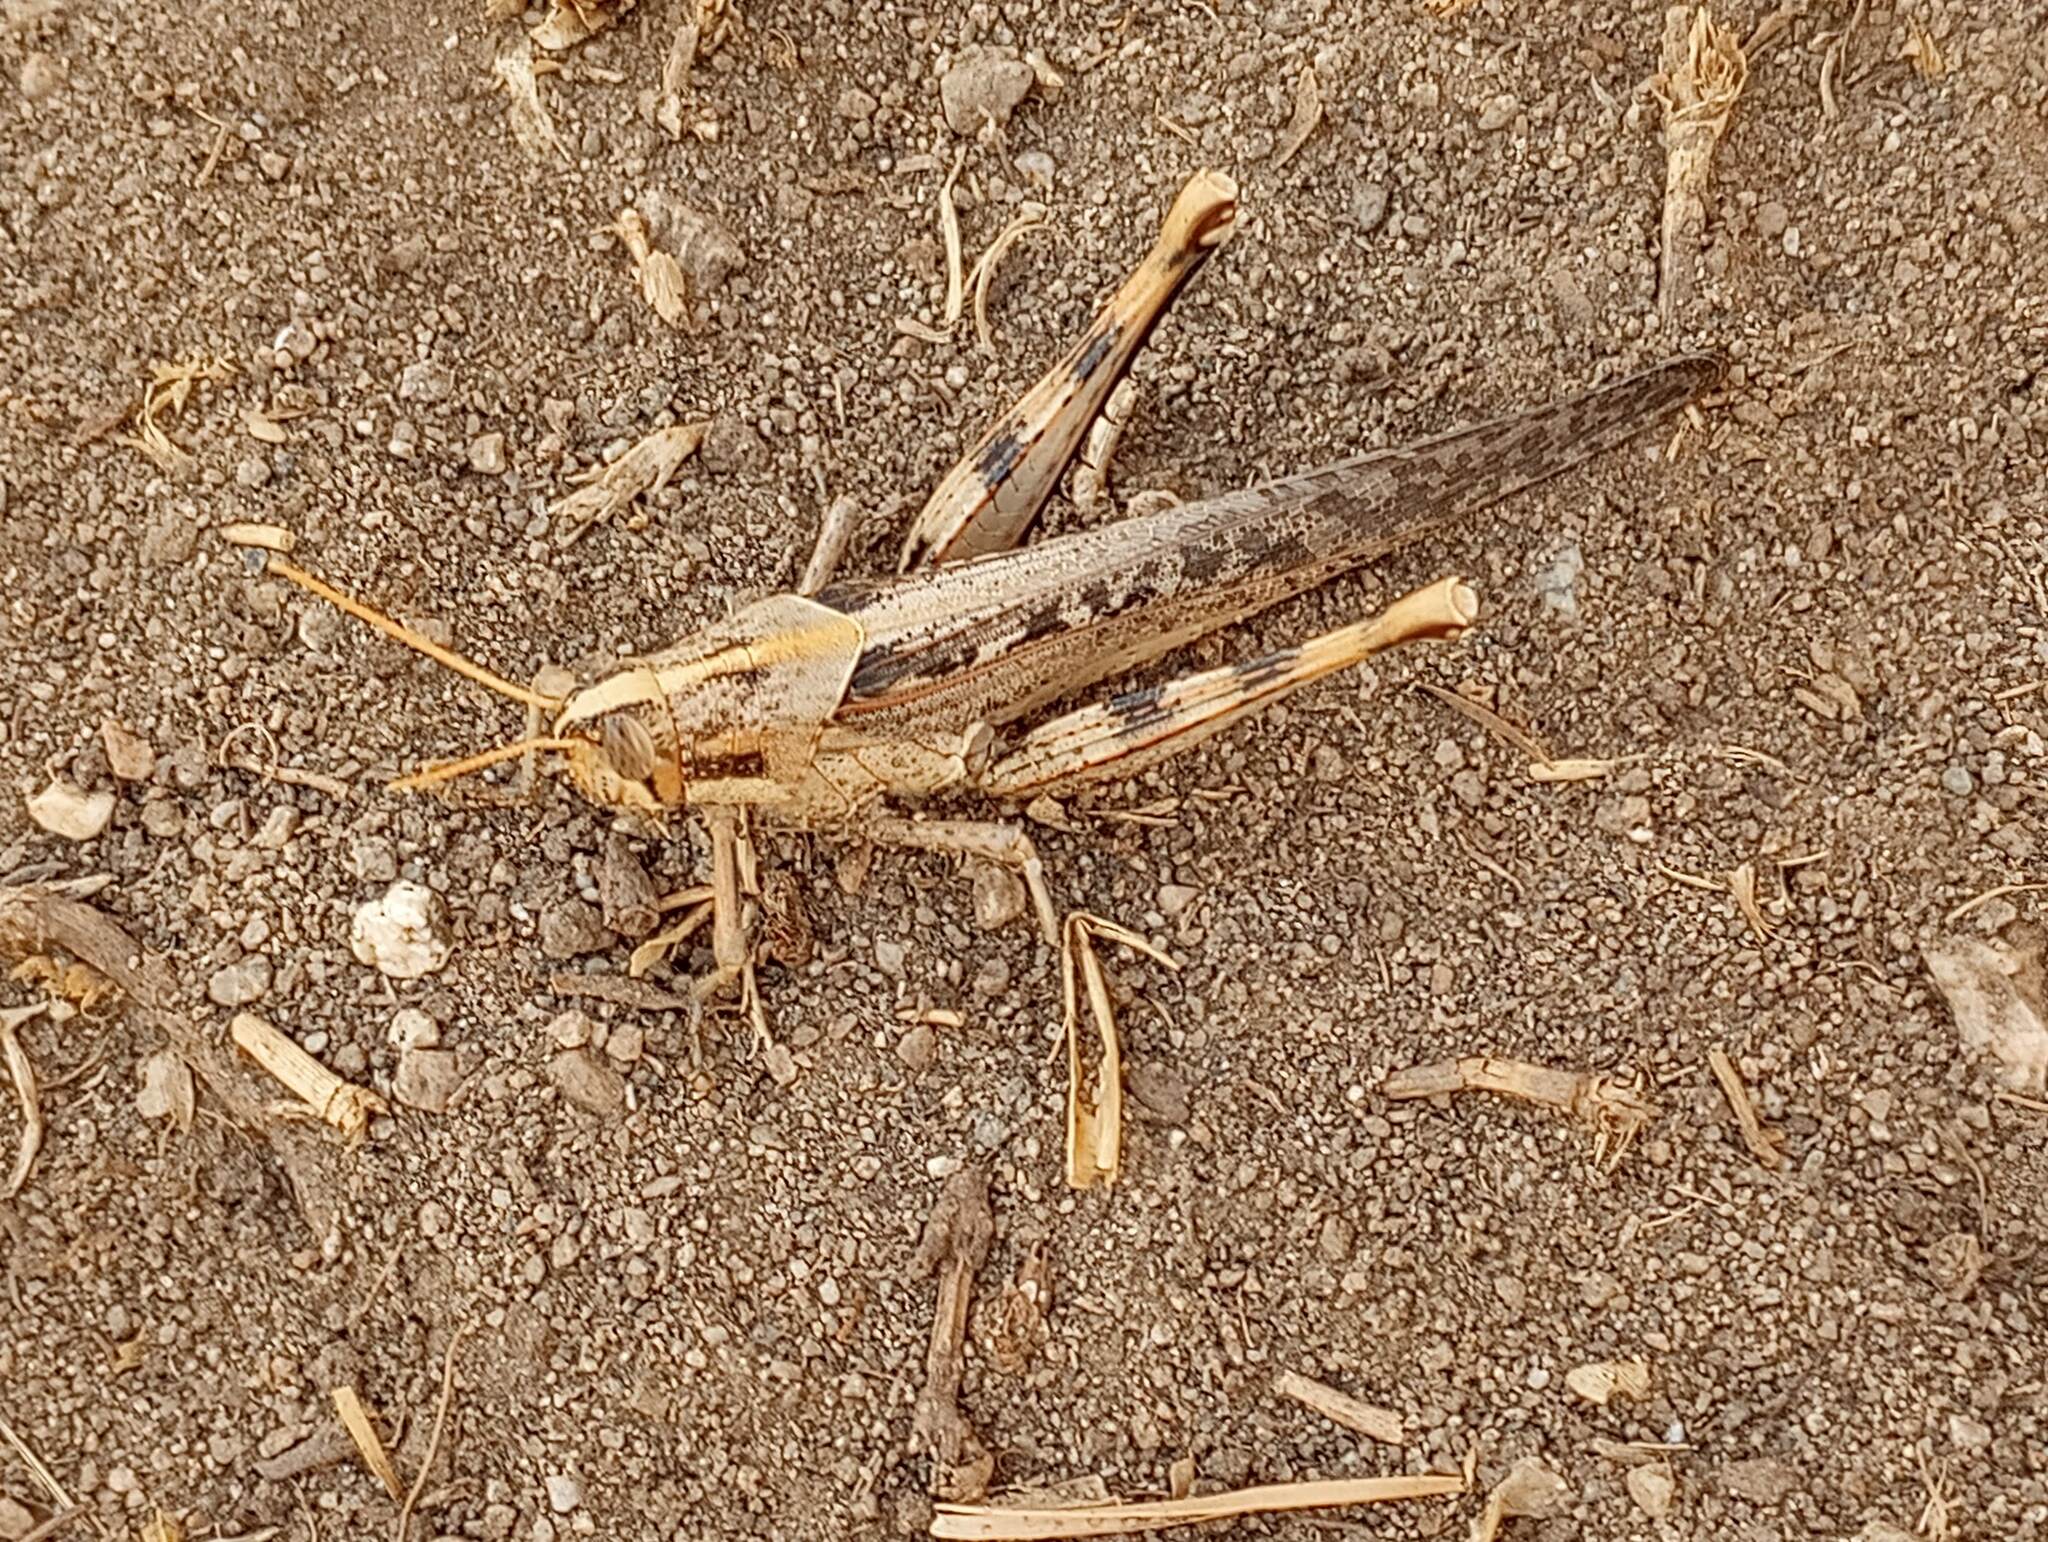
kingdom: Animalia
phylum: Arthropoda
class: Insecta
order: Orthoptera
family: Acrididae
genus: Schistocerca
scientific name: Schistocerca nitens
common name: Vagrant grasshopper
